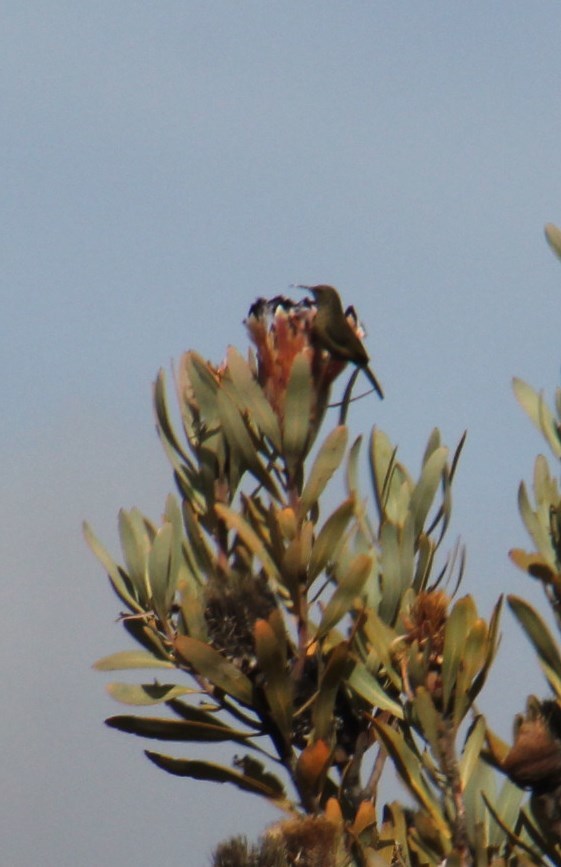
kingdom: Animalia
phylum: Chordata
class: Aves
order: Passeriformes
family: Nectariniidae
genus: Anthobaphes
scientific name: Anthobaphes violacea
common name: Orange-breasted sunbird
